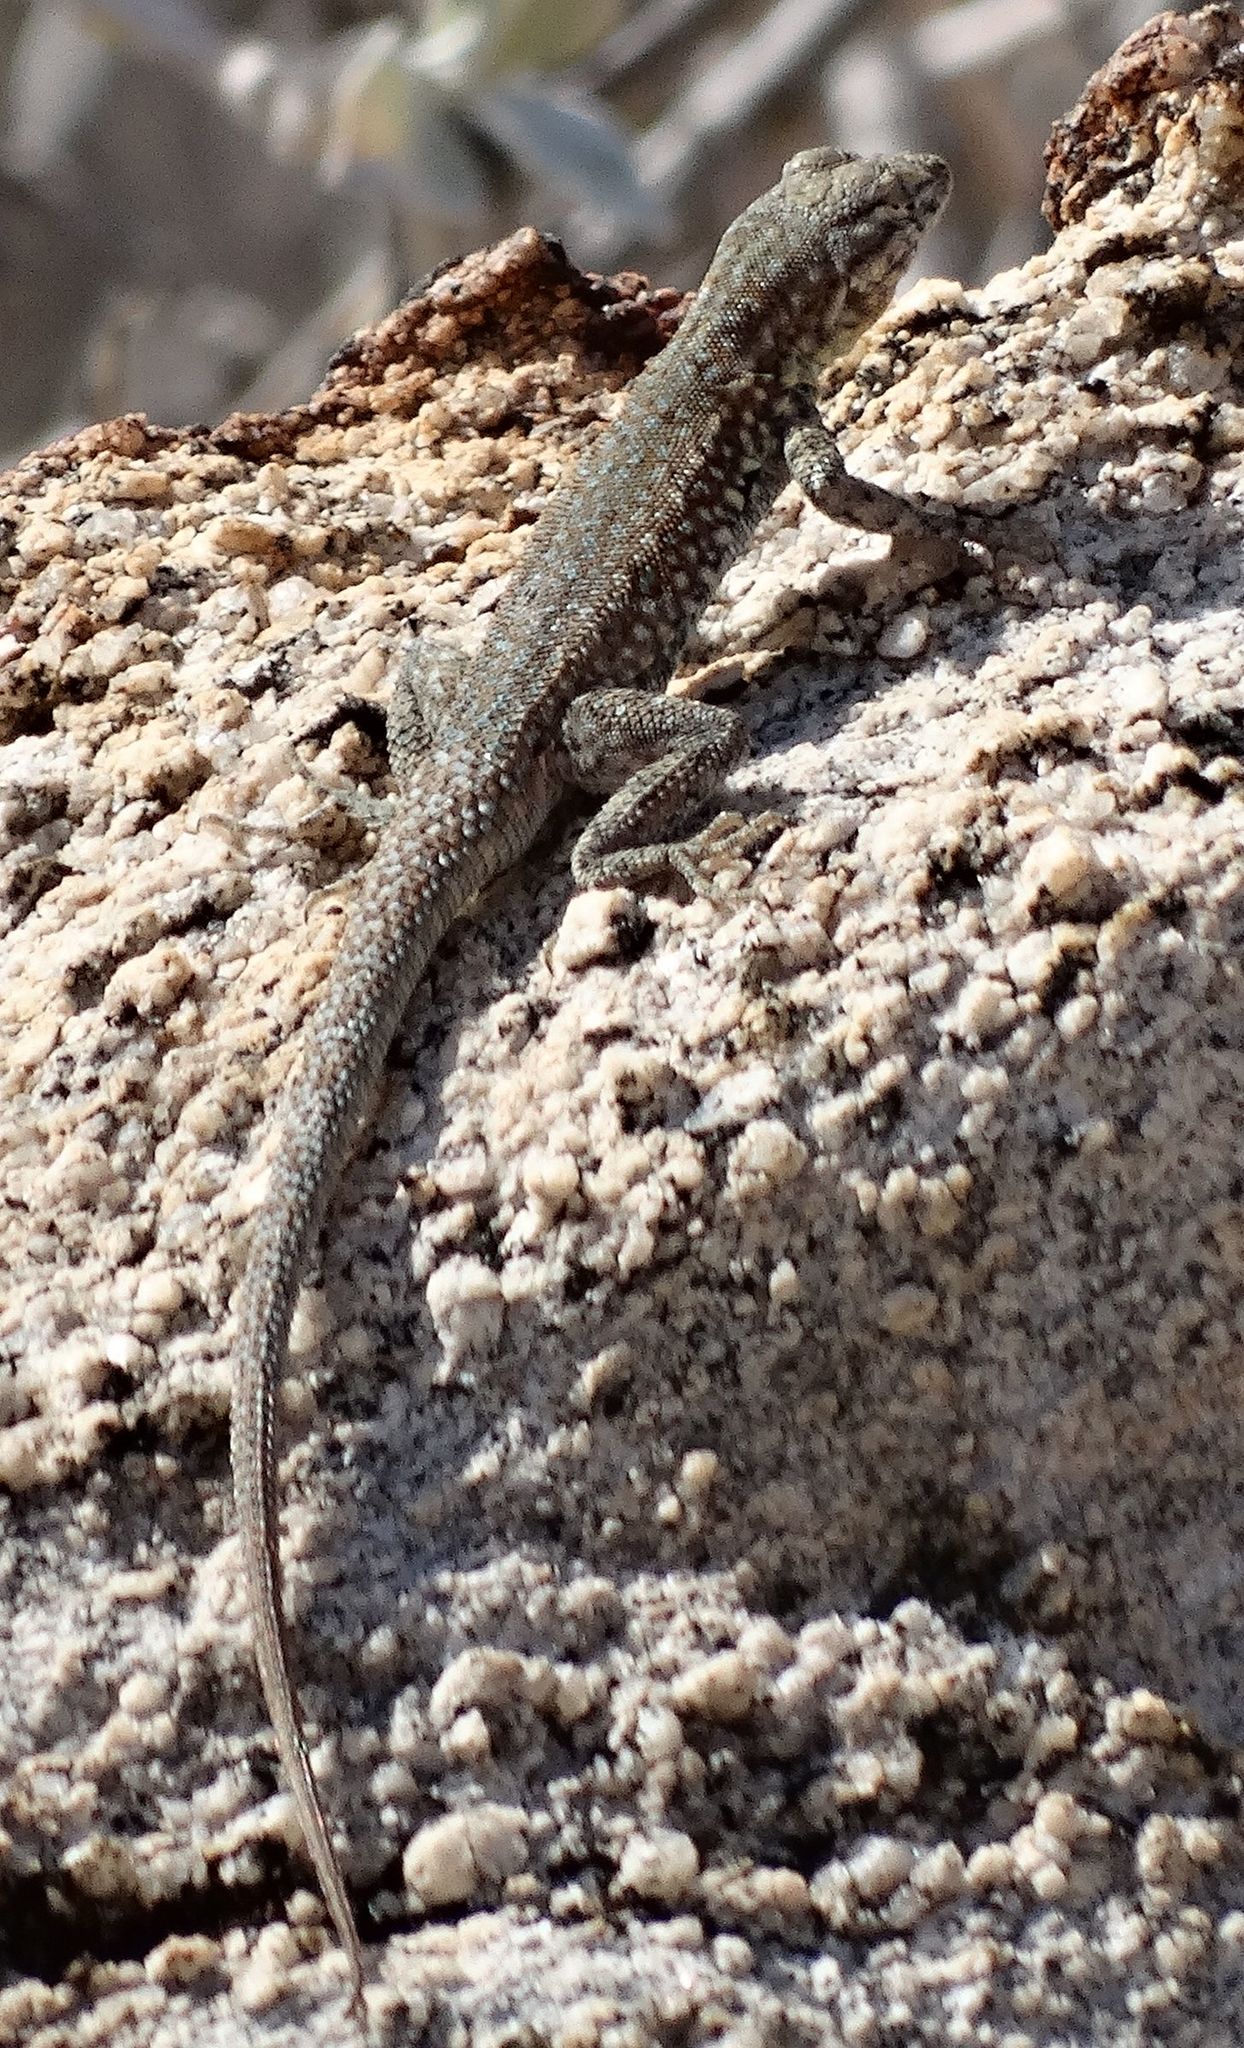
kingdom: Animalia
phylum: Chordata
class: Squamata
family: Phrynosomatidae
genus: Uta
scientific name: Uta stansburiana
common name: Side-blotched lizard
